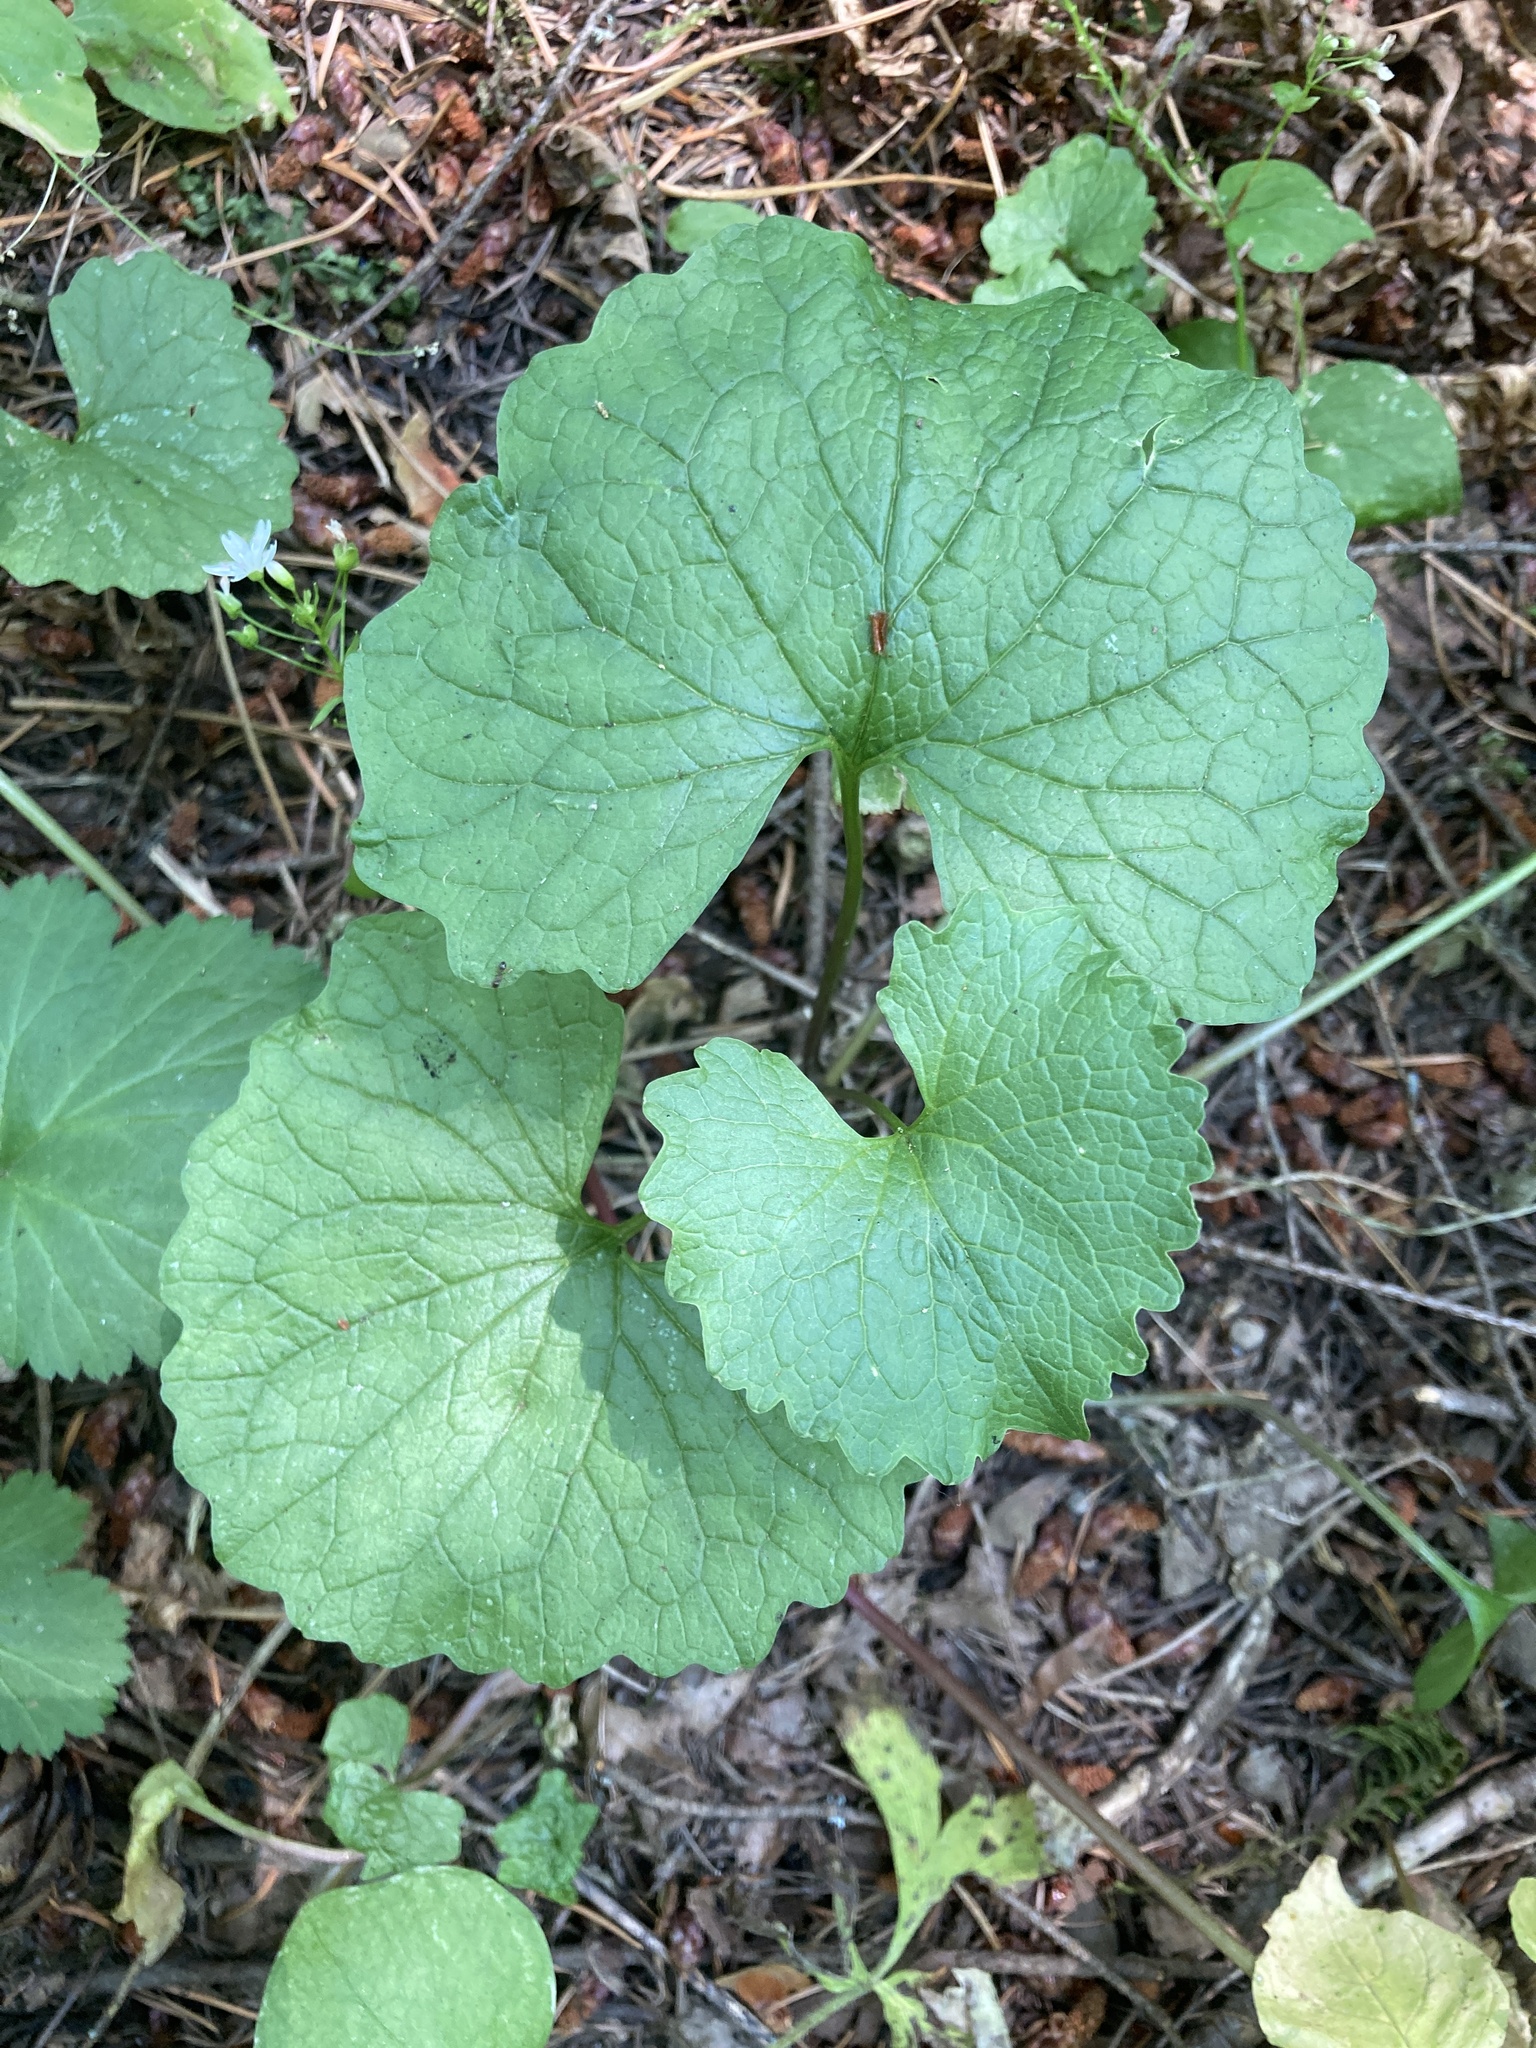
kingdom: Plantae
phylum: Tracheophyta
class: Magnoliopsida
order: Brassicales
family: Brassicaceae
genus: Alliaria
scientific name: Alliaria petiolata
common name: Garlic mustard
